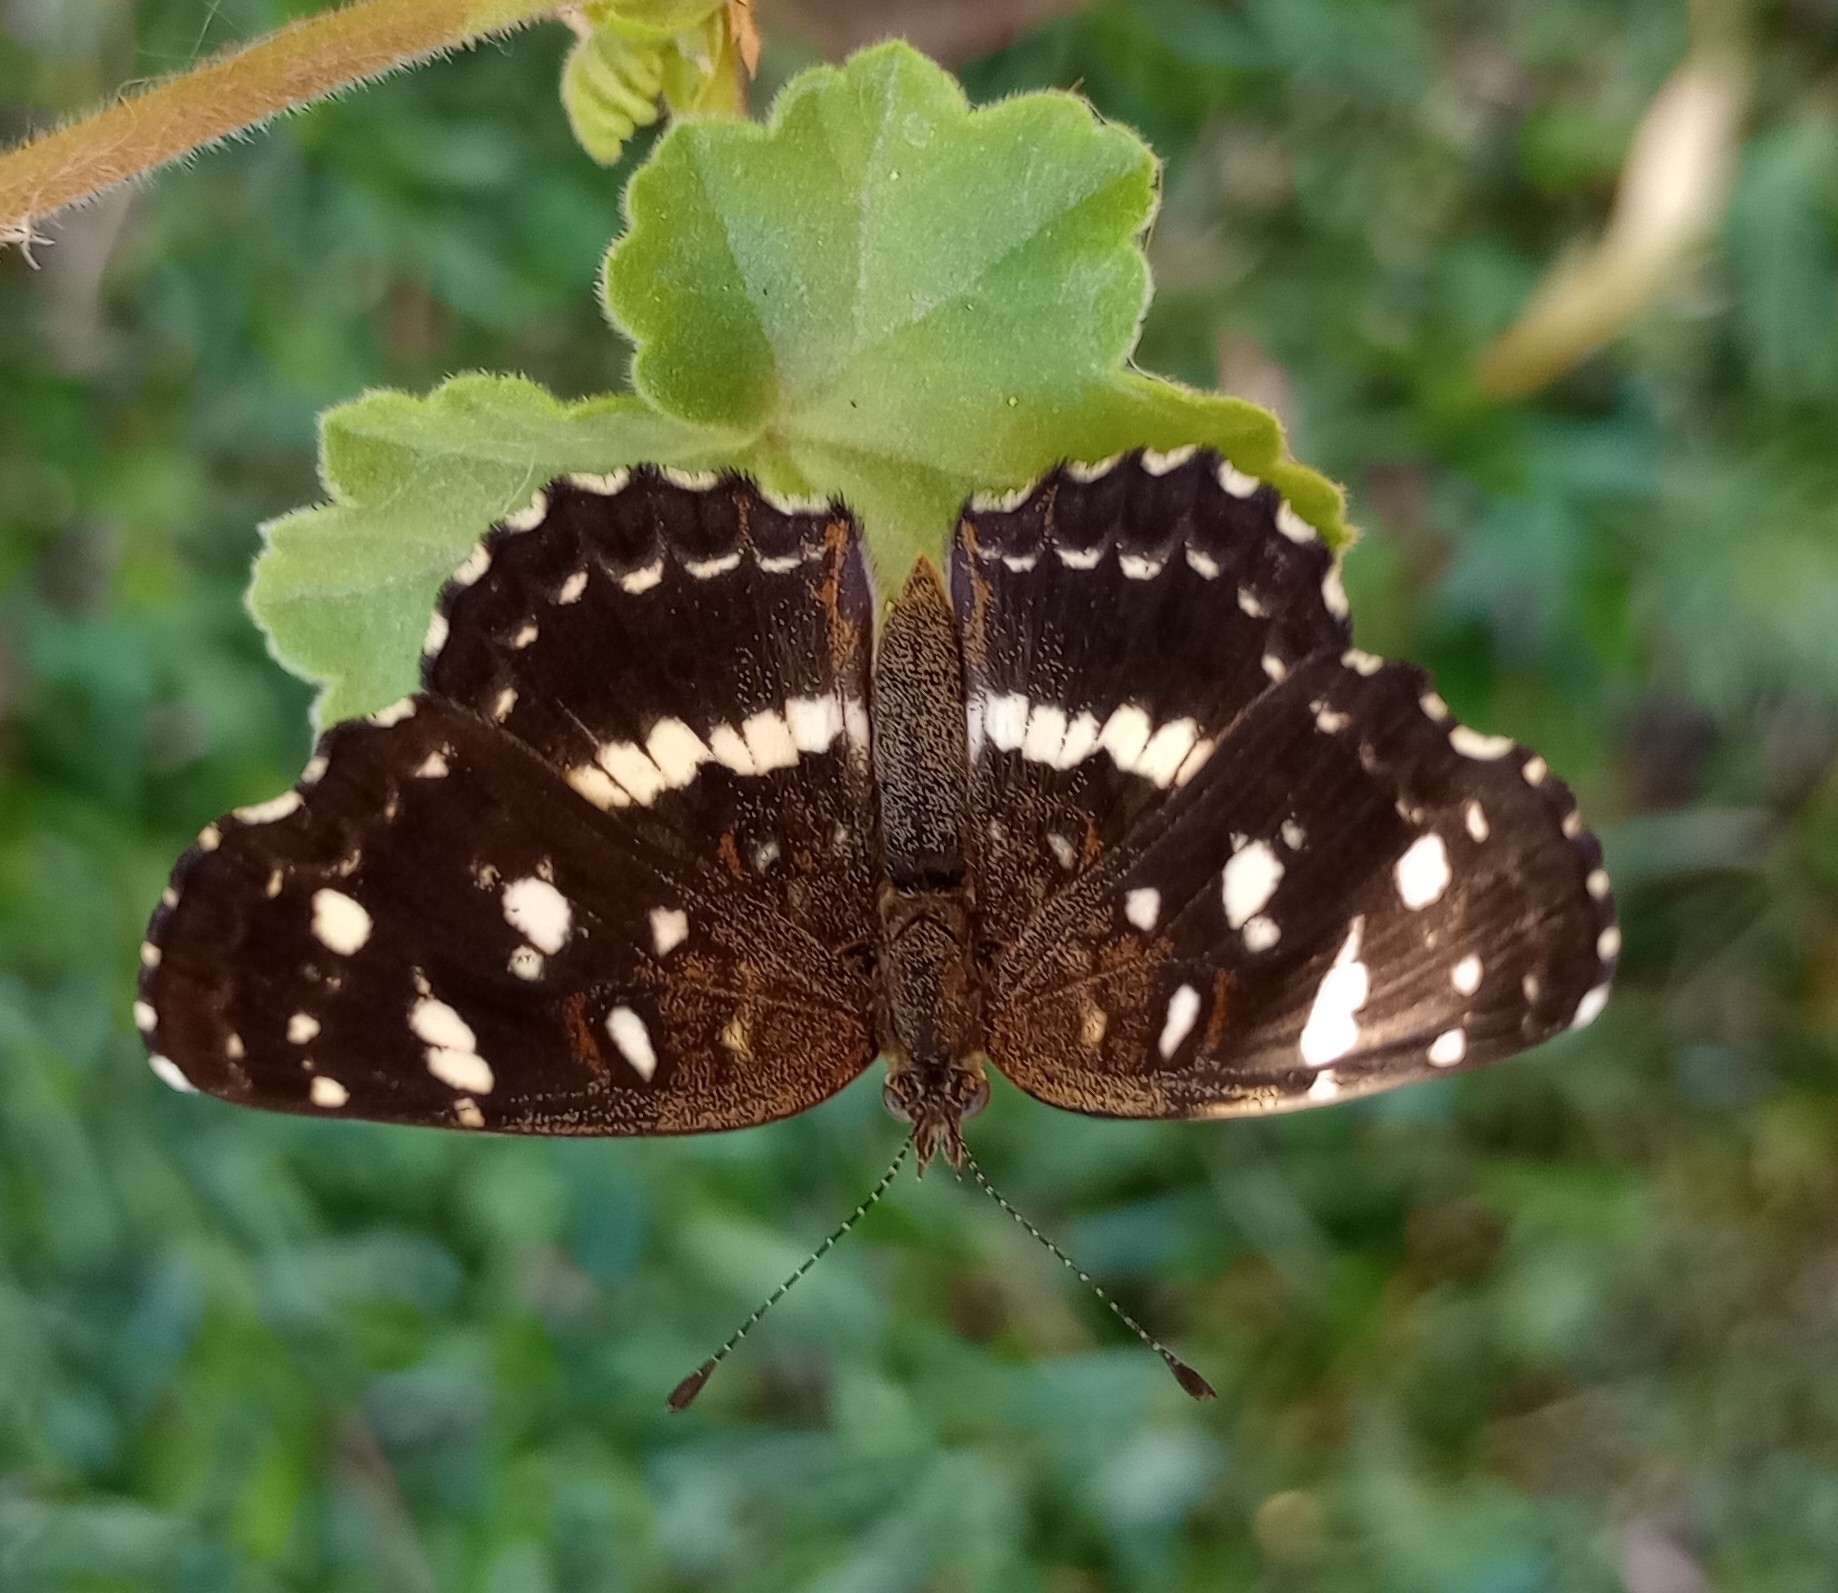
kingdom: Animalia
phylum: Arthropoda
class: Insecta
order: Lepidoptera
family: Nymphalidae
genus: Ortilia
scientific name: Ortilia ithra
